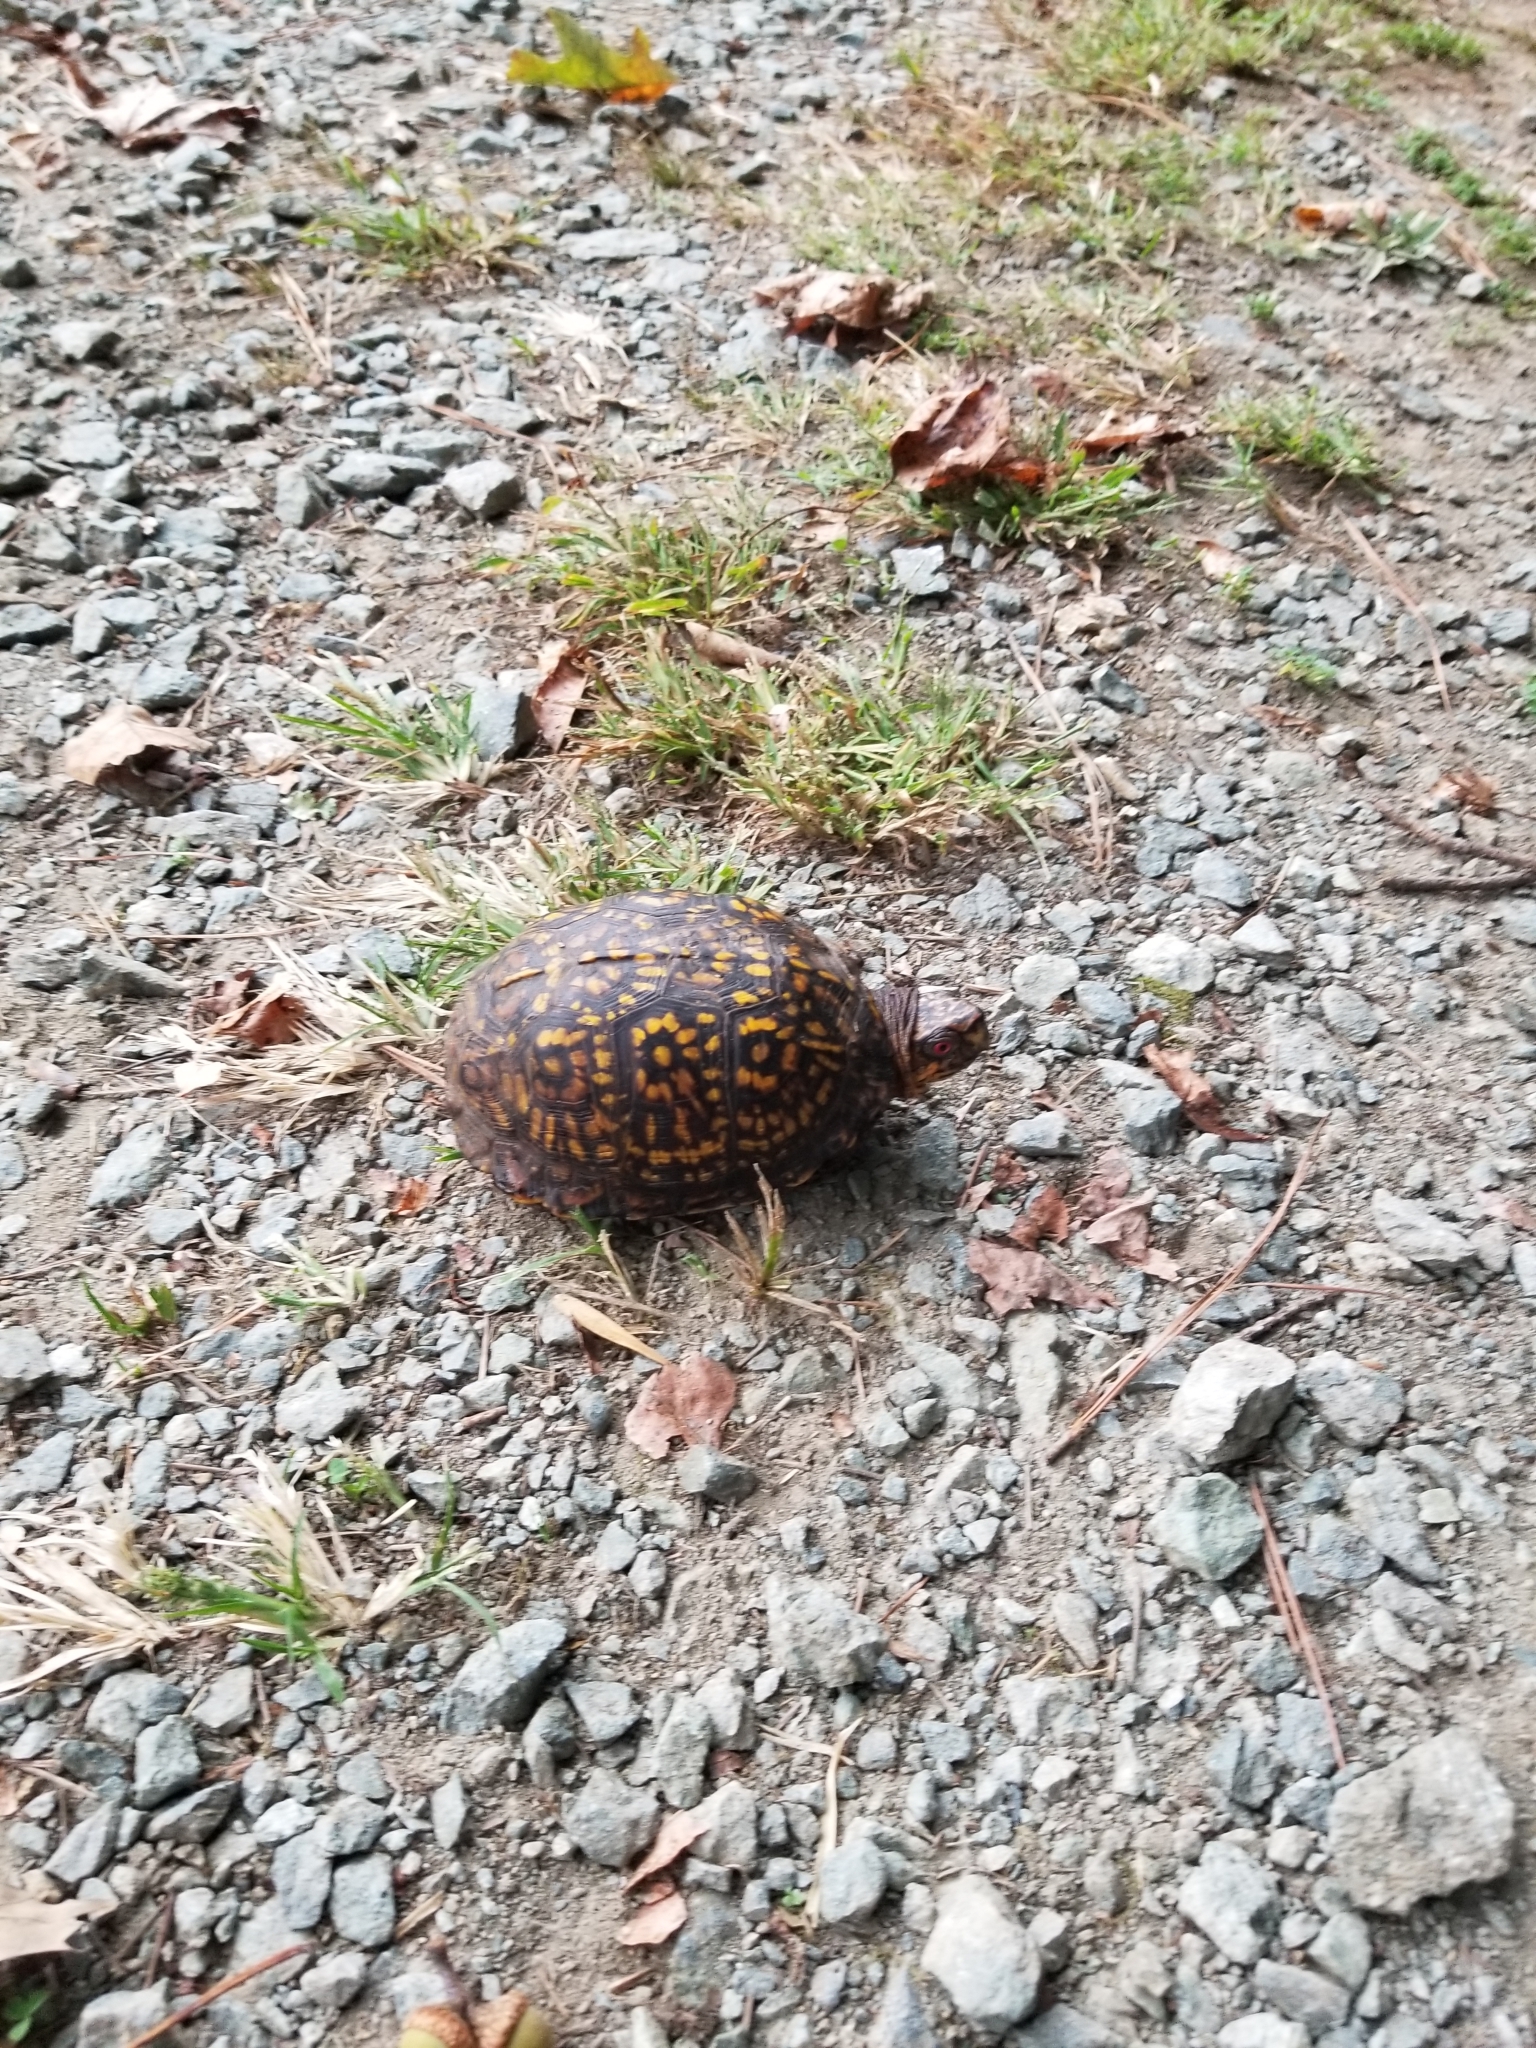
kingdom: Animalia
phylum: Chordata
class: Testudines
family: Emydidae
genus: Terrapene
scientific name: Terrapene carolina
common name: Common box turtle
